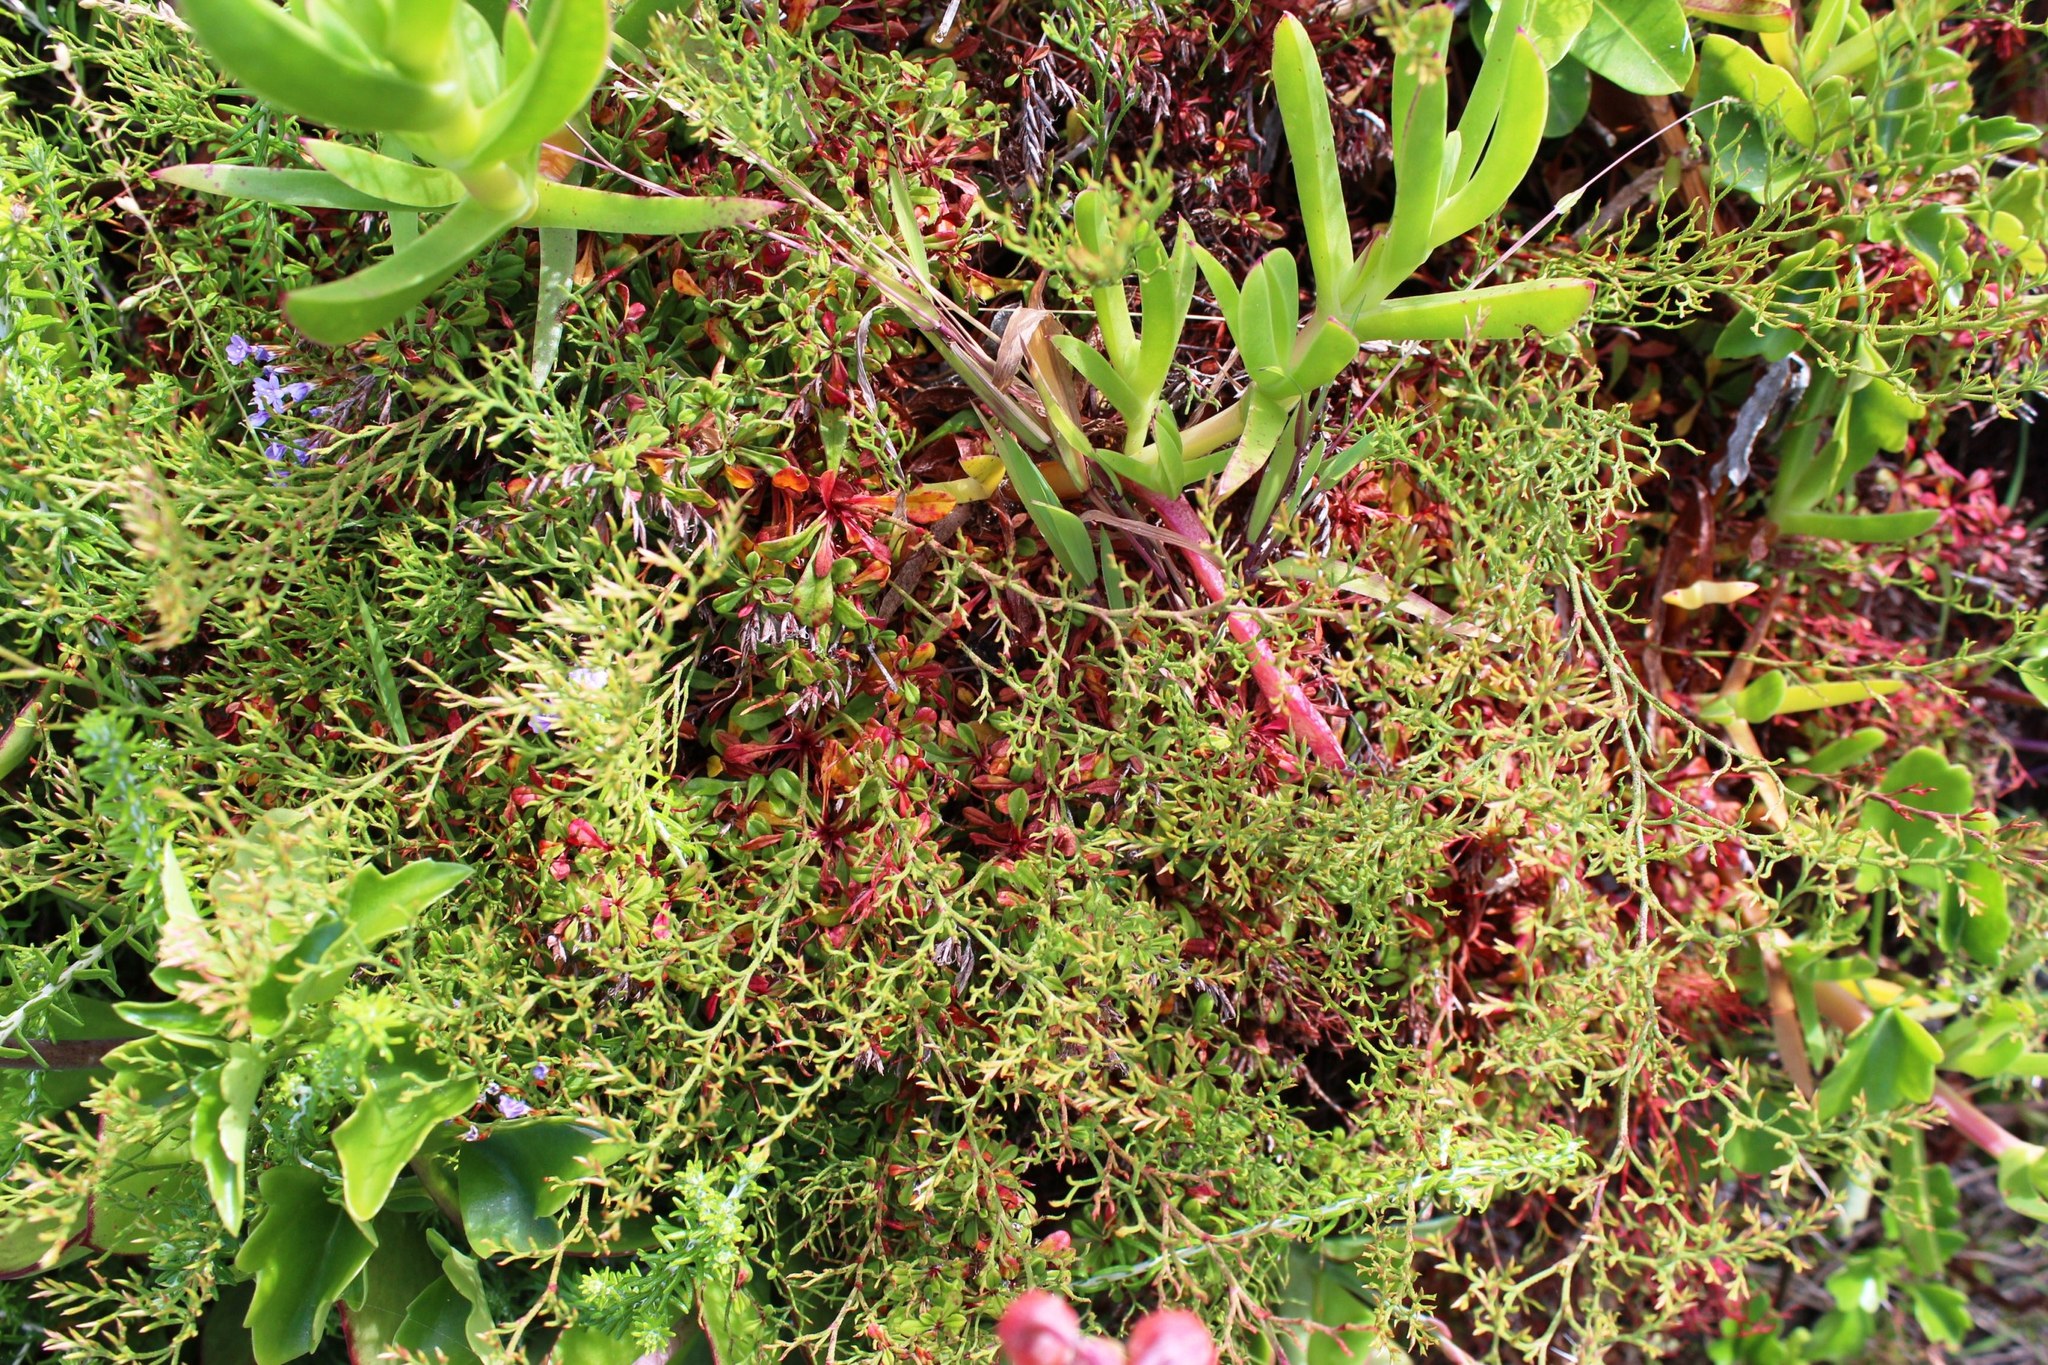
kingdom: Plantae
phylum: Tracheophyta
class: Magnoliopsida
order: Caryophyllales
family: Plumbaginaceae
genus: Limonium
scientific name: Limonium scabrum
